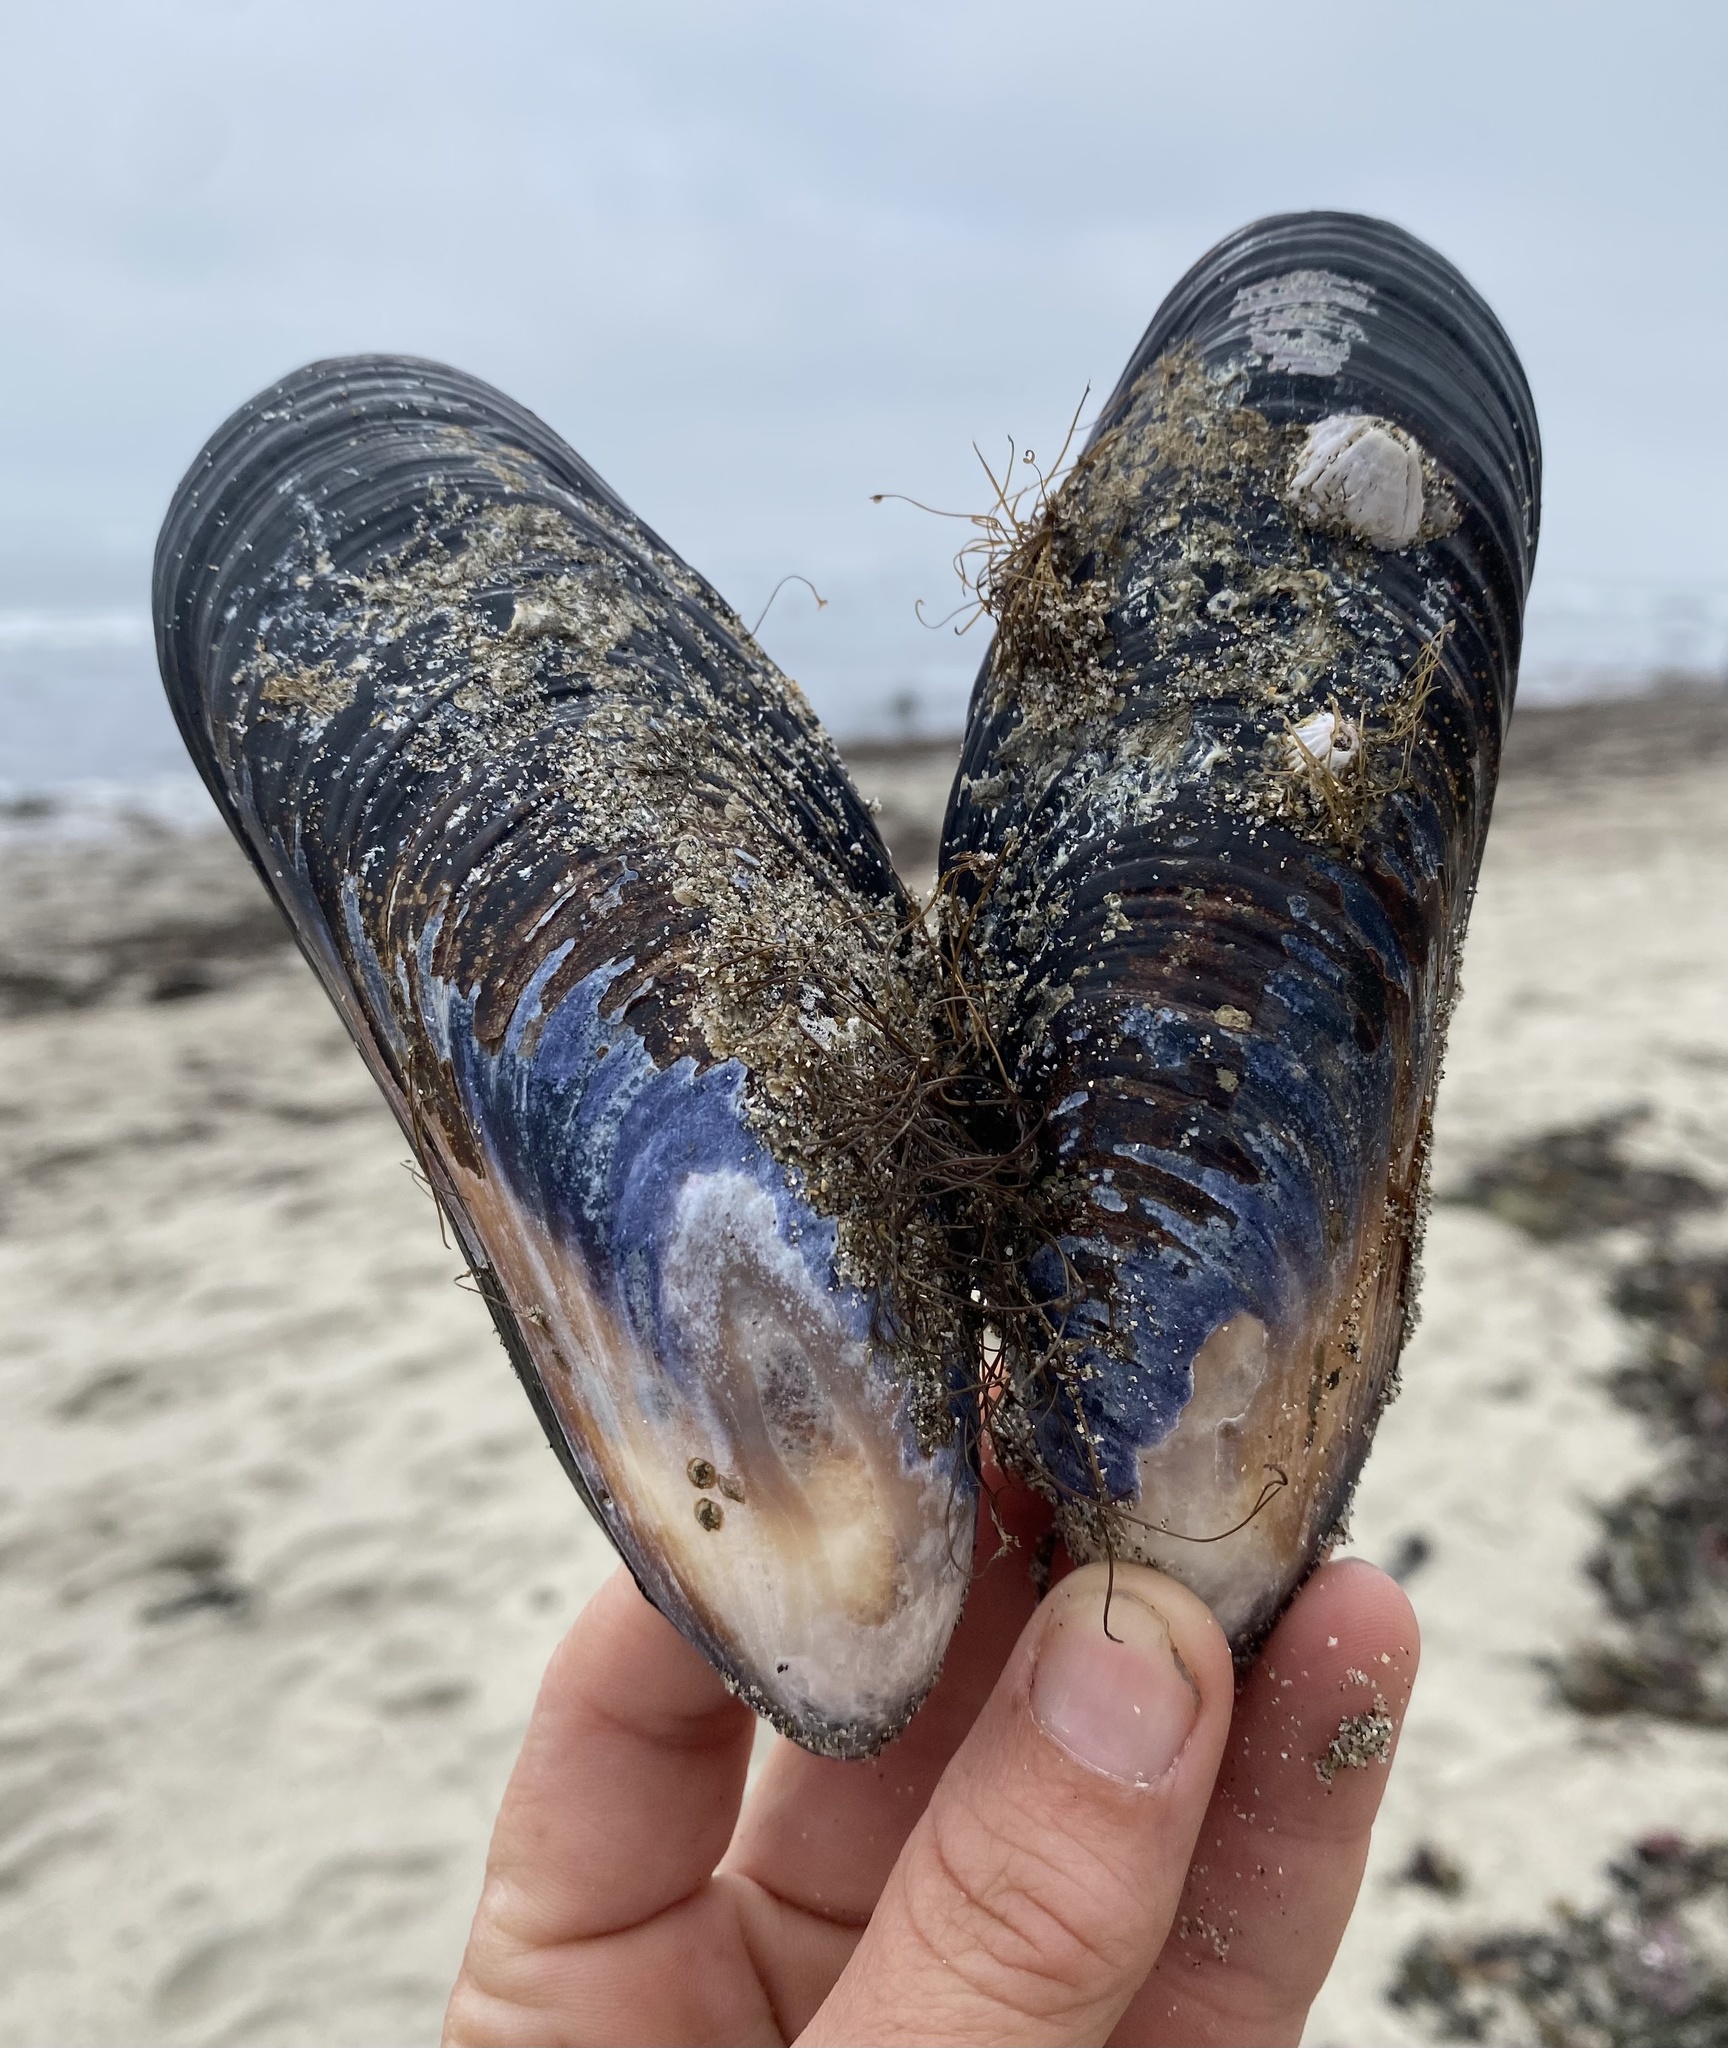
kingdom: Animalia
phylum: Mollusca
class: Bivalvia
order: Mytilida
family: Mytilidae
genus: Mytilus
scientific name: Mytilus californianus
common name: California mussel
